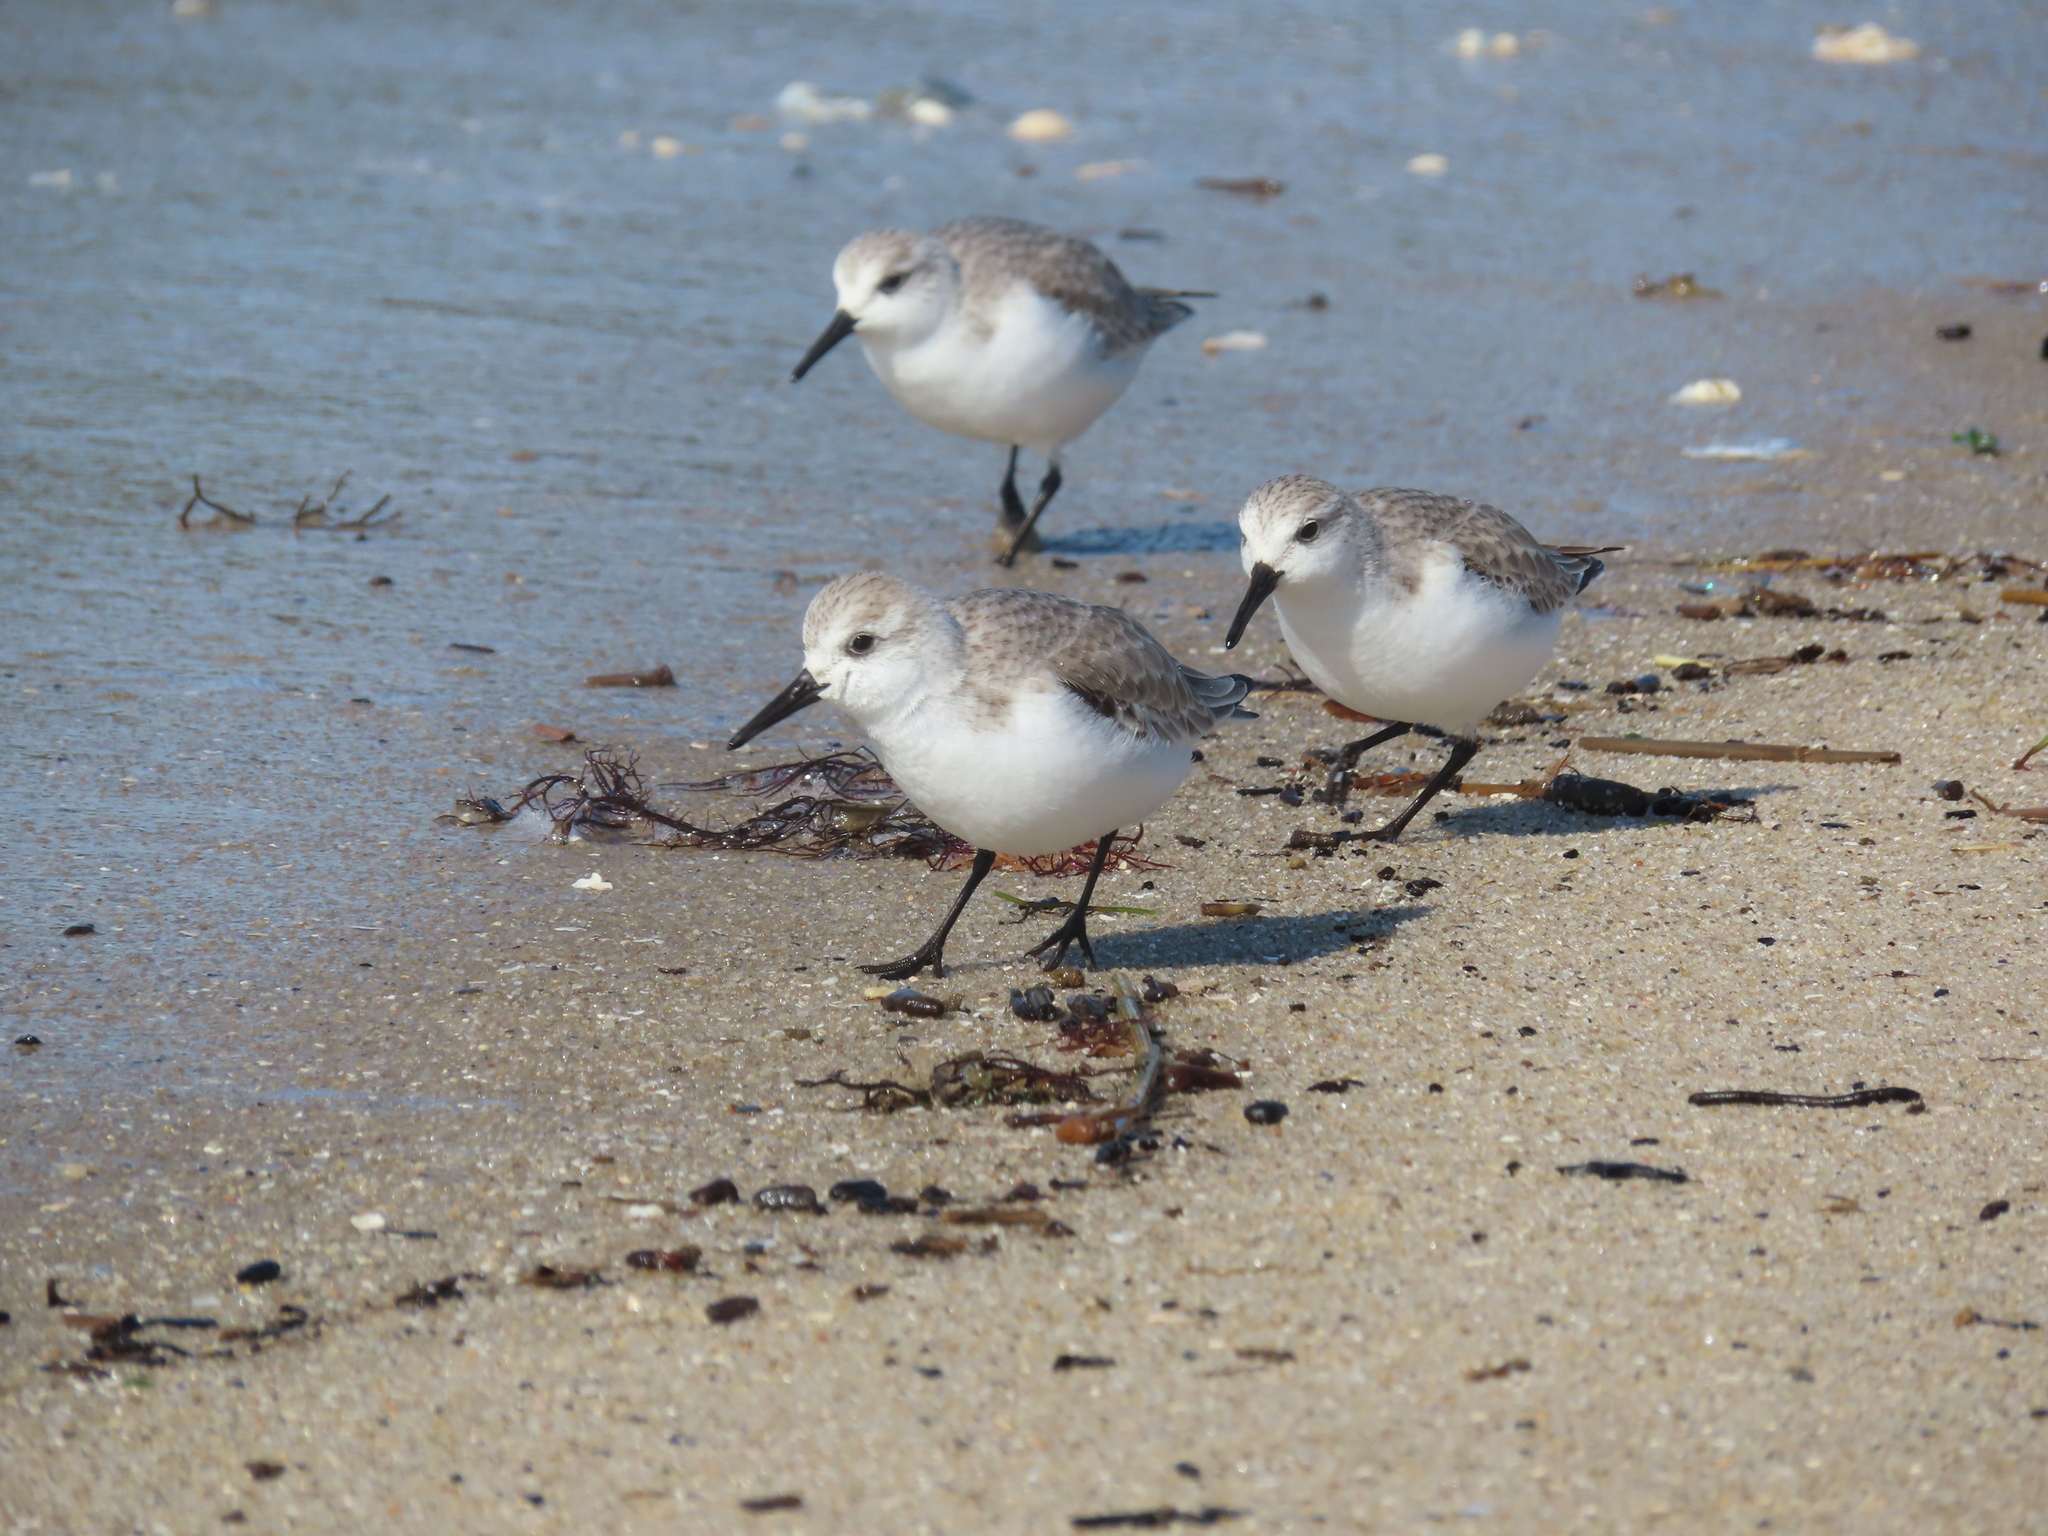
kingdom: Animalia
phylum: Chordata
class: Aves
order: Charadriiformes
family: Scolopacidae
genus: Calidris
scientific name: Calidris alba
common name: Sanderling
